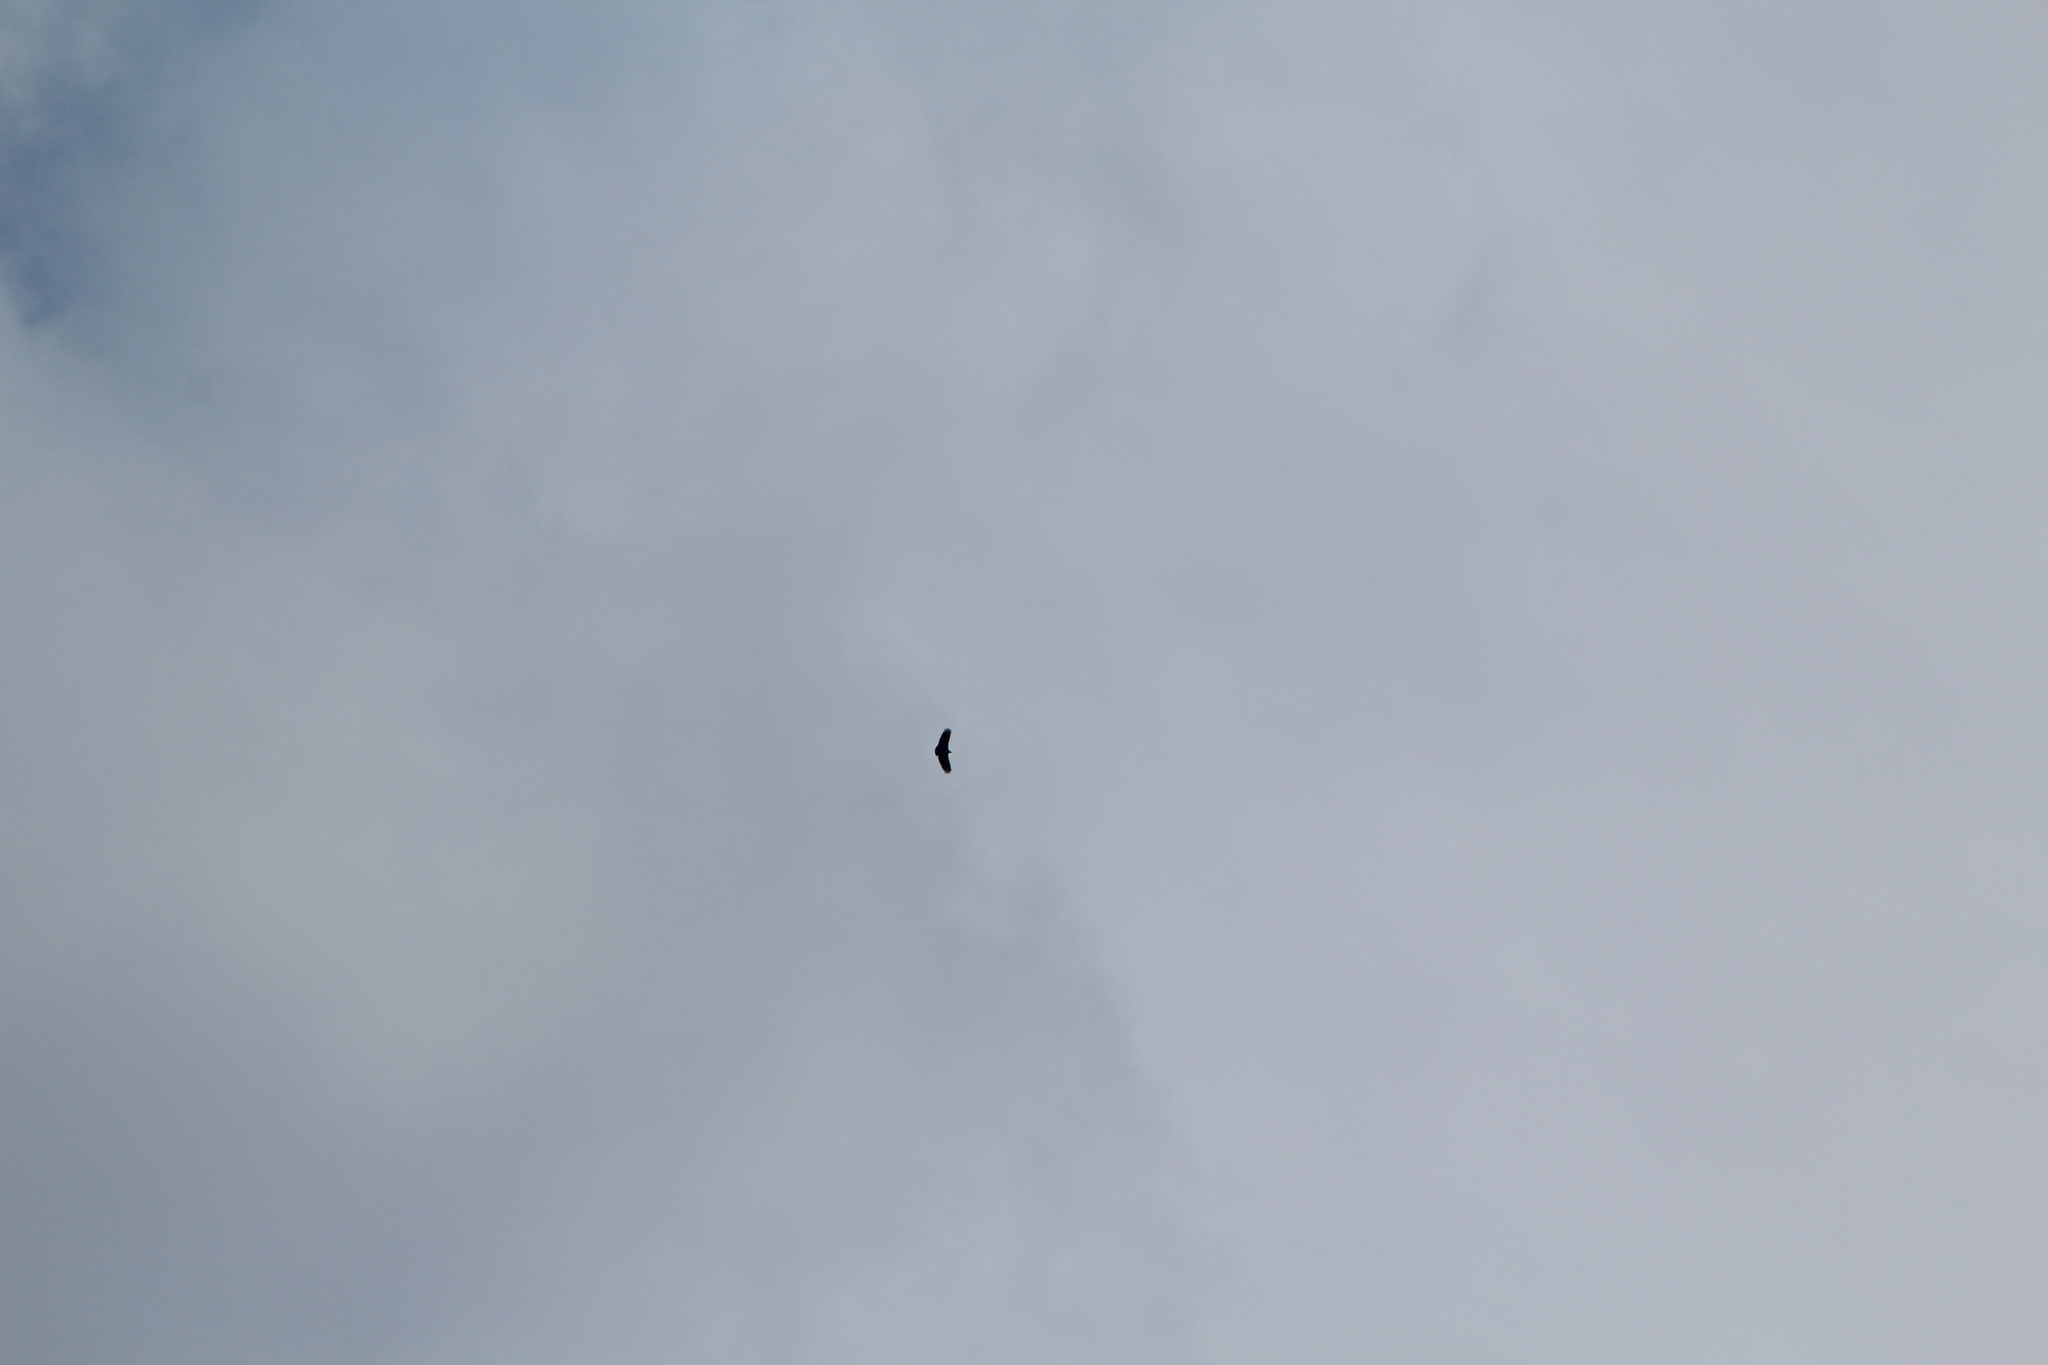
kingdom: Animalia
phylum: Chordata
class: Aves
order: Accipitriformes
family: Cathartidae
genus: Coragyps
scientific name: Coragyps atratus
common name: Black vulture
